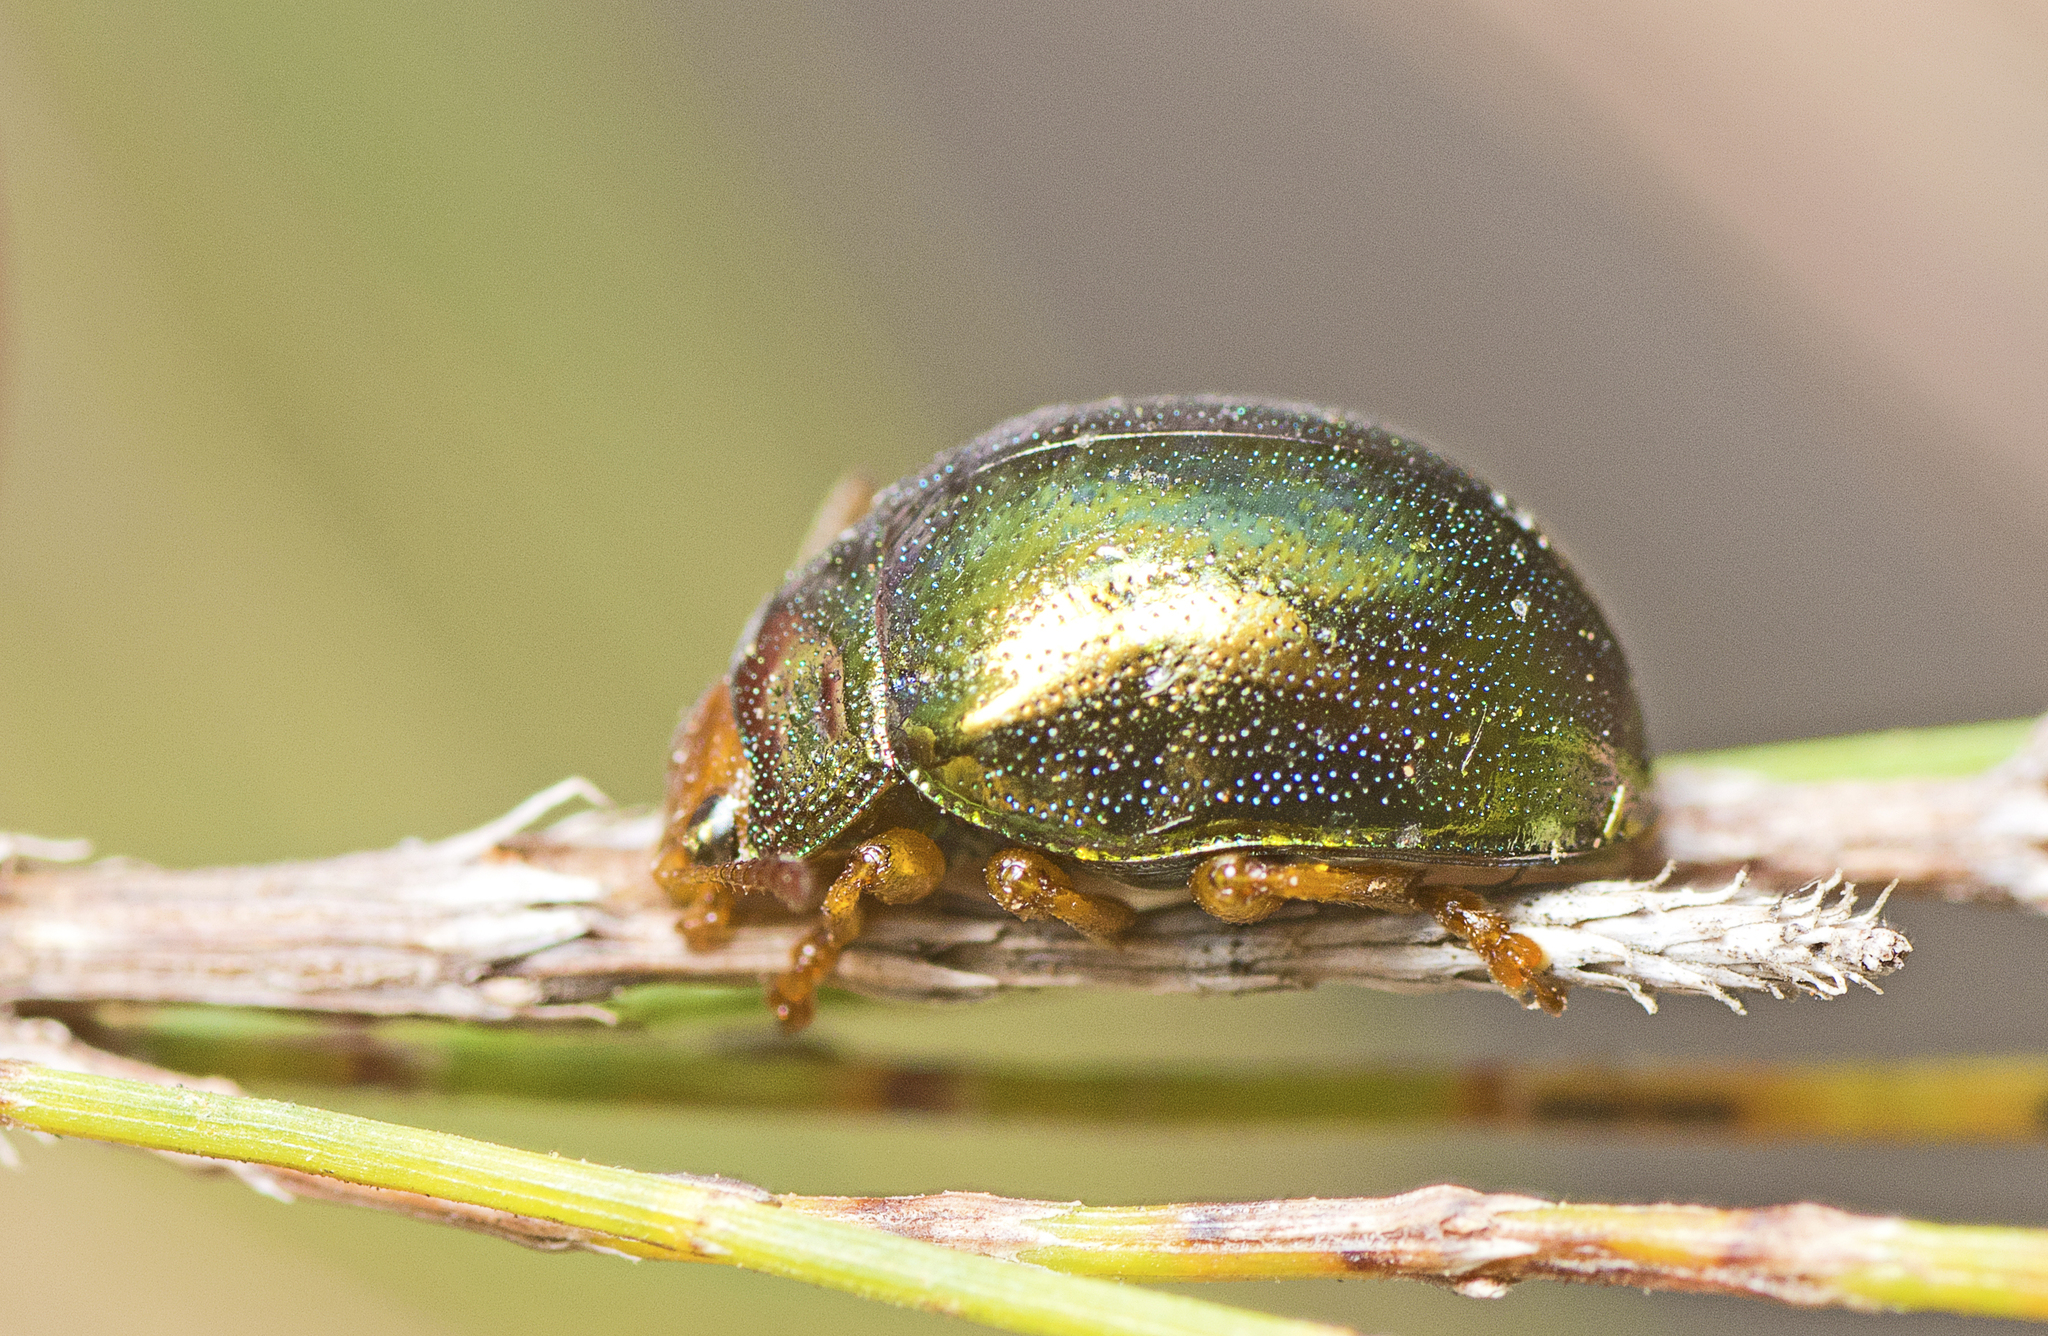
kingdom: Animalia
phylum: Arthropoda
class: Insecta
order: Coleoptera
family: Chrysomelidae
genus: Calomela
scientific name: Calomela
